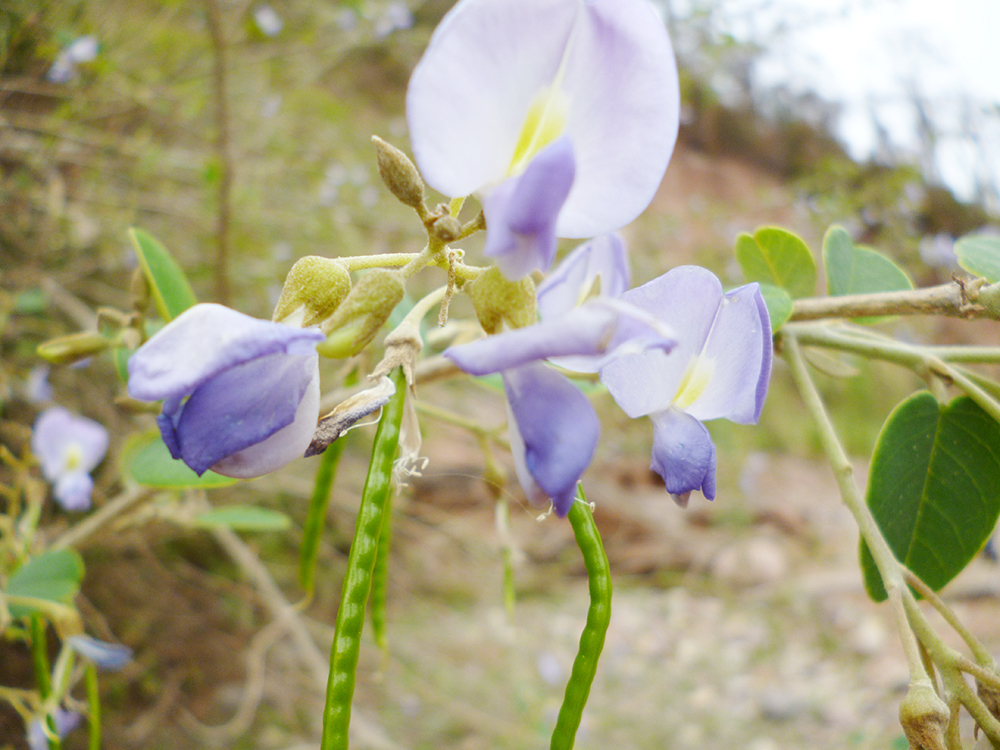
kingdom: Plantae
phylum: Tracheophyta
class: Magnoliopsida
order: Fabales
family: Fabaceae
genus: Poissonia
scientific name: Poissonia hypoleuca
